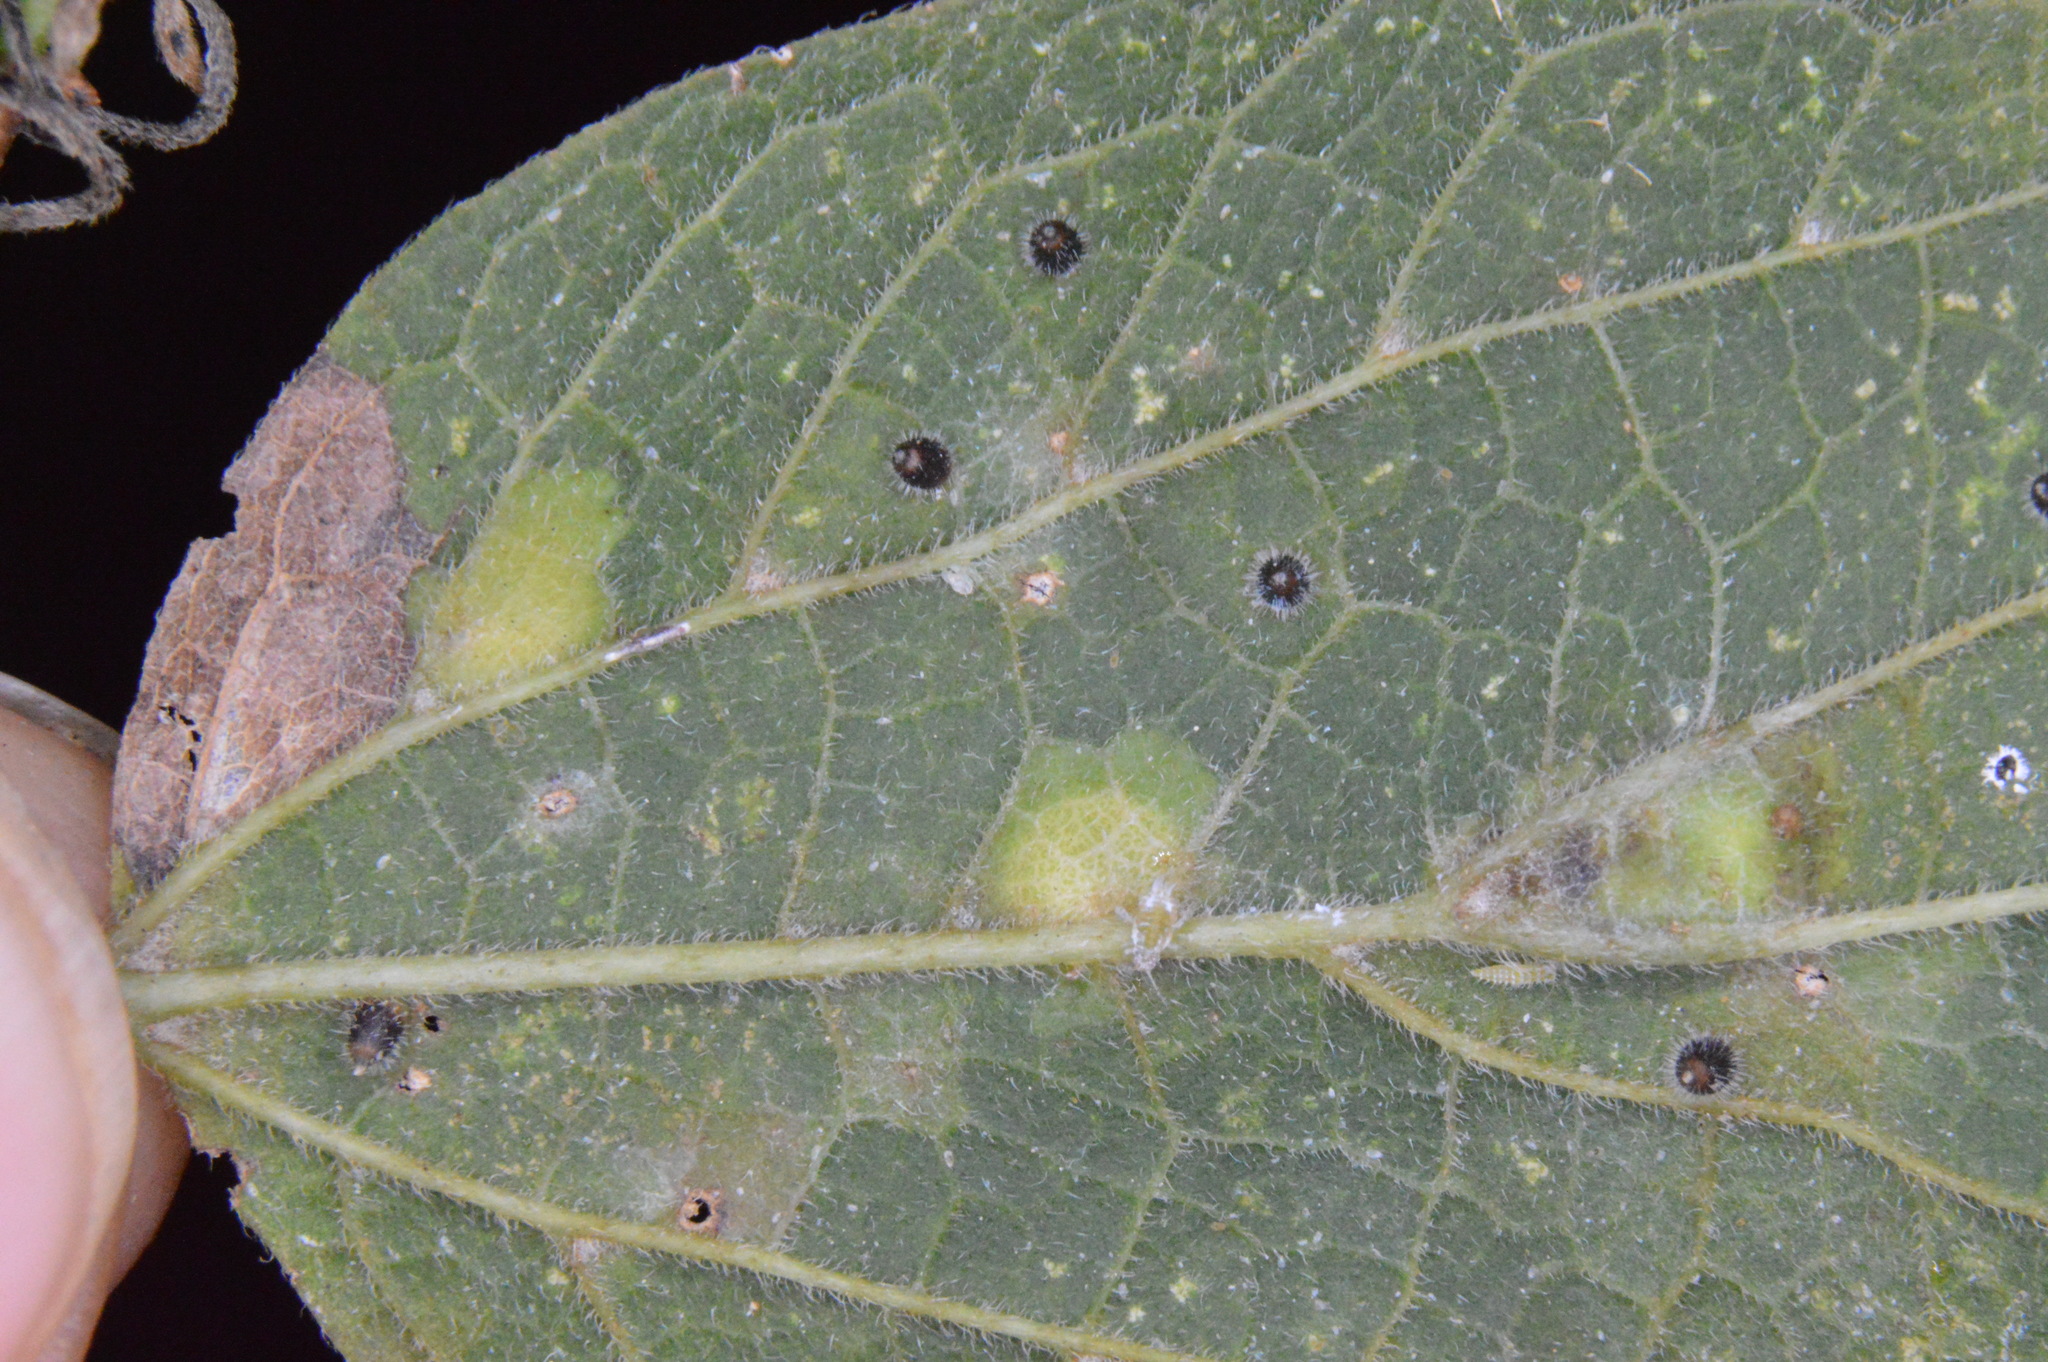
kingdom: Animalia
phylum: Arthropoda
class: Insecta
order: Diptera
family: Cecidomyiidae
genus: Celticecis
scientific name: Celticecis cupiformis
